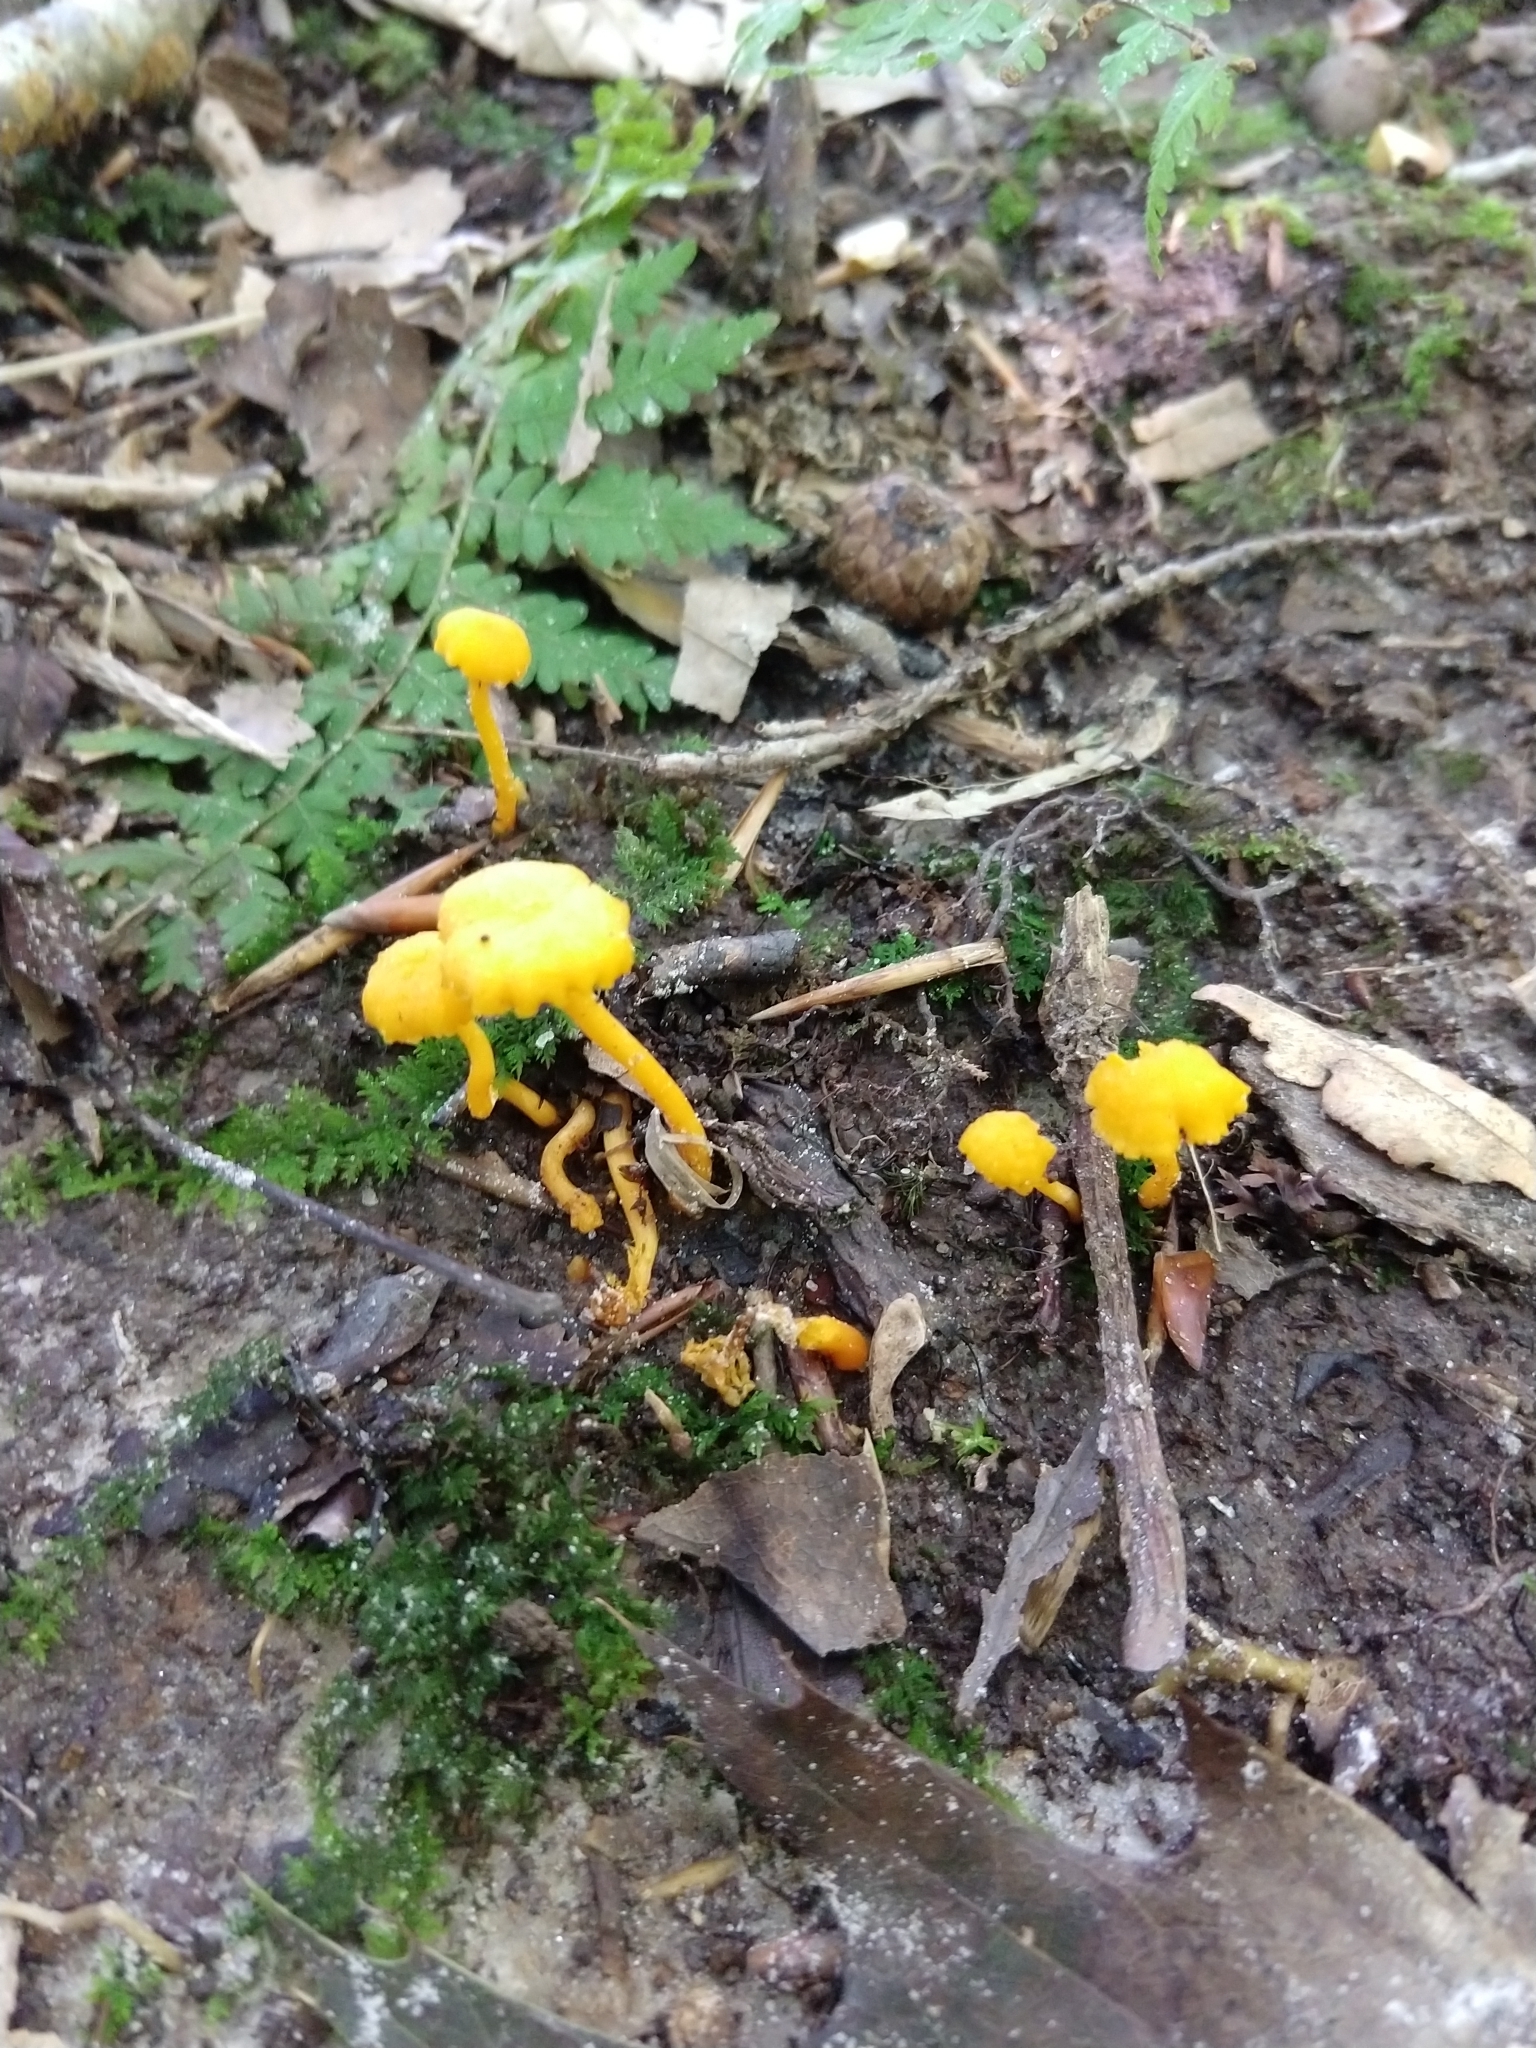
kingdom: Fungi
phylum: Basidiomycota
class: Agaricomycetes
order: Cantharellales
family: Hydnaceae
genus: Cantharellus
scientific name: Cantharellus minor
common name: Small chanterelle
